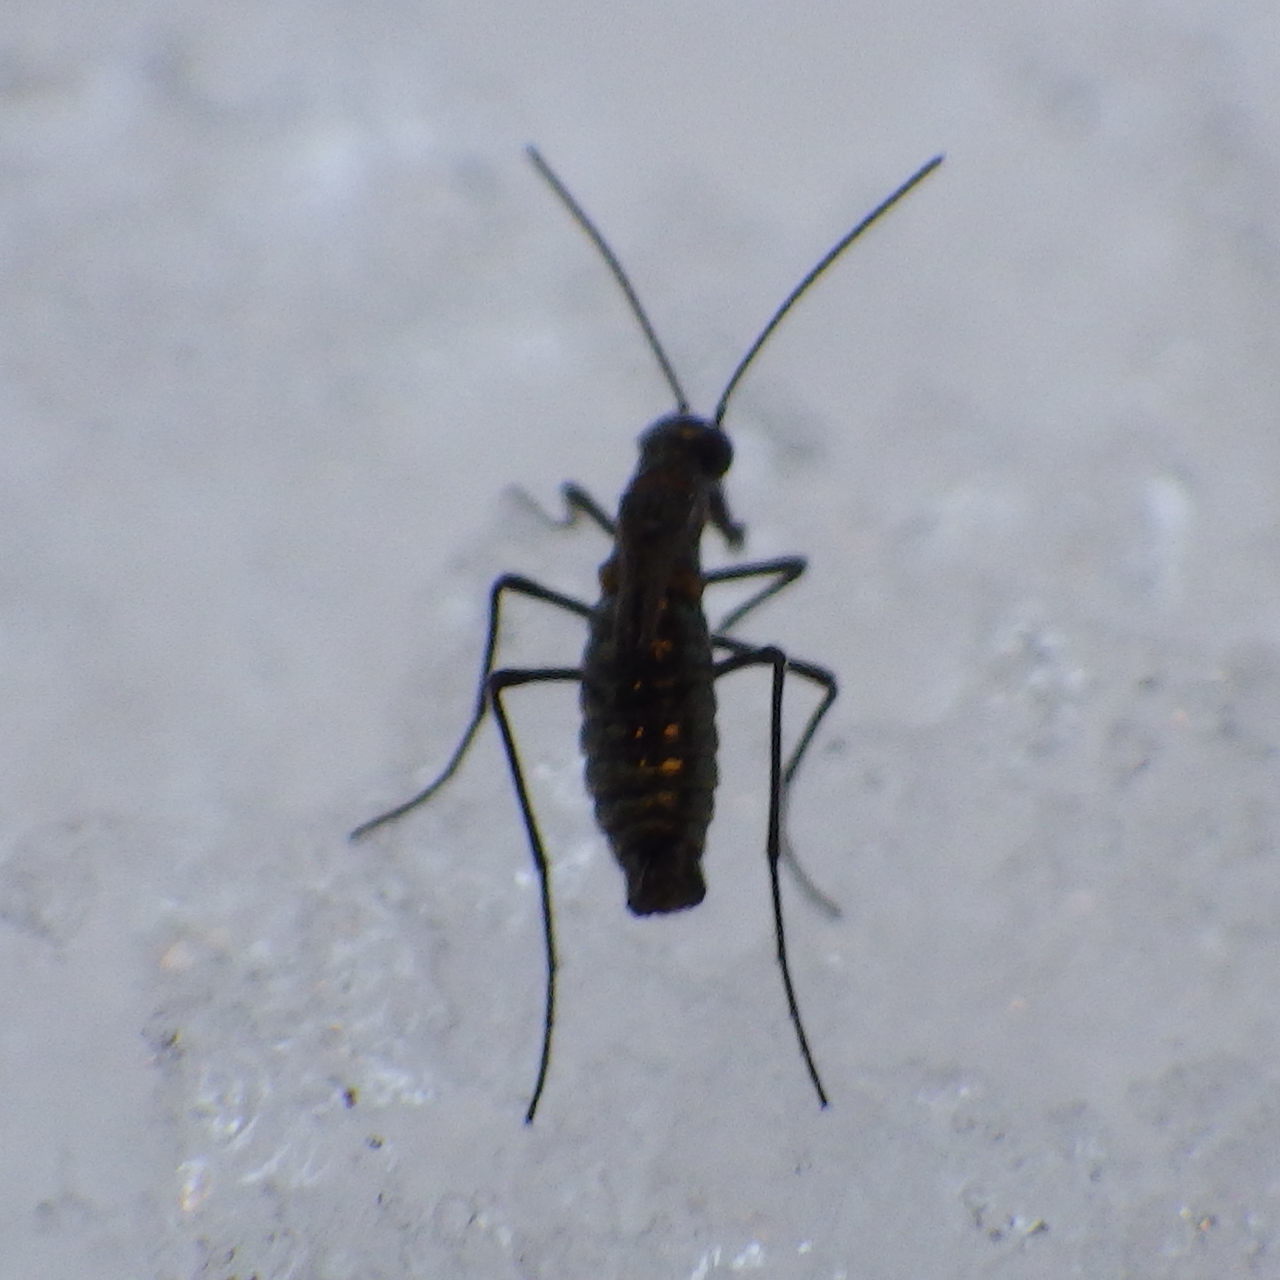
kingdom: Animalia
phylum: Arthropoda
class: Insecta
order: Mecoptera
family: Boreidae
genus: Boreus
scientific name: Boreus brumalis
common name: Mid-winter boreus
